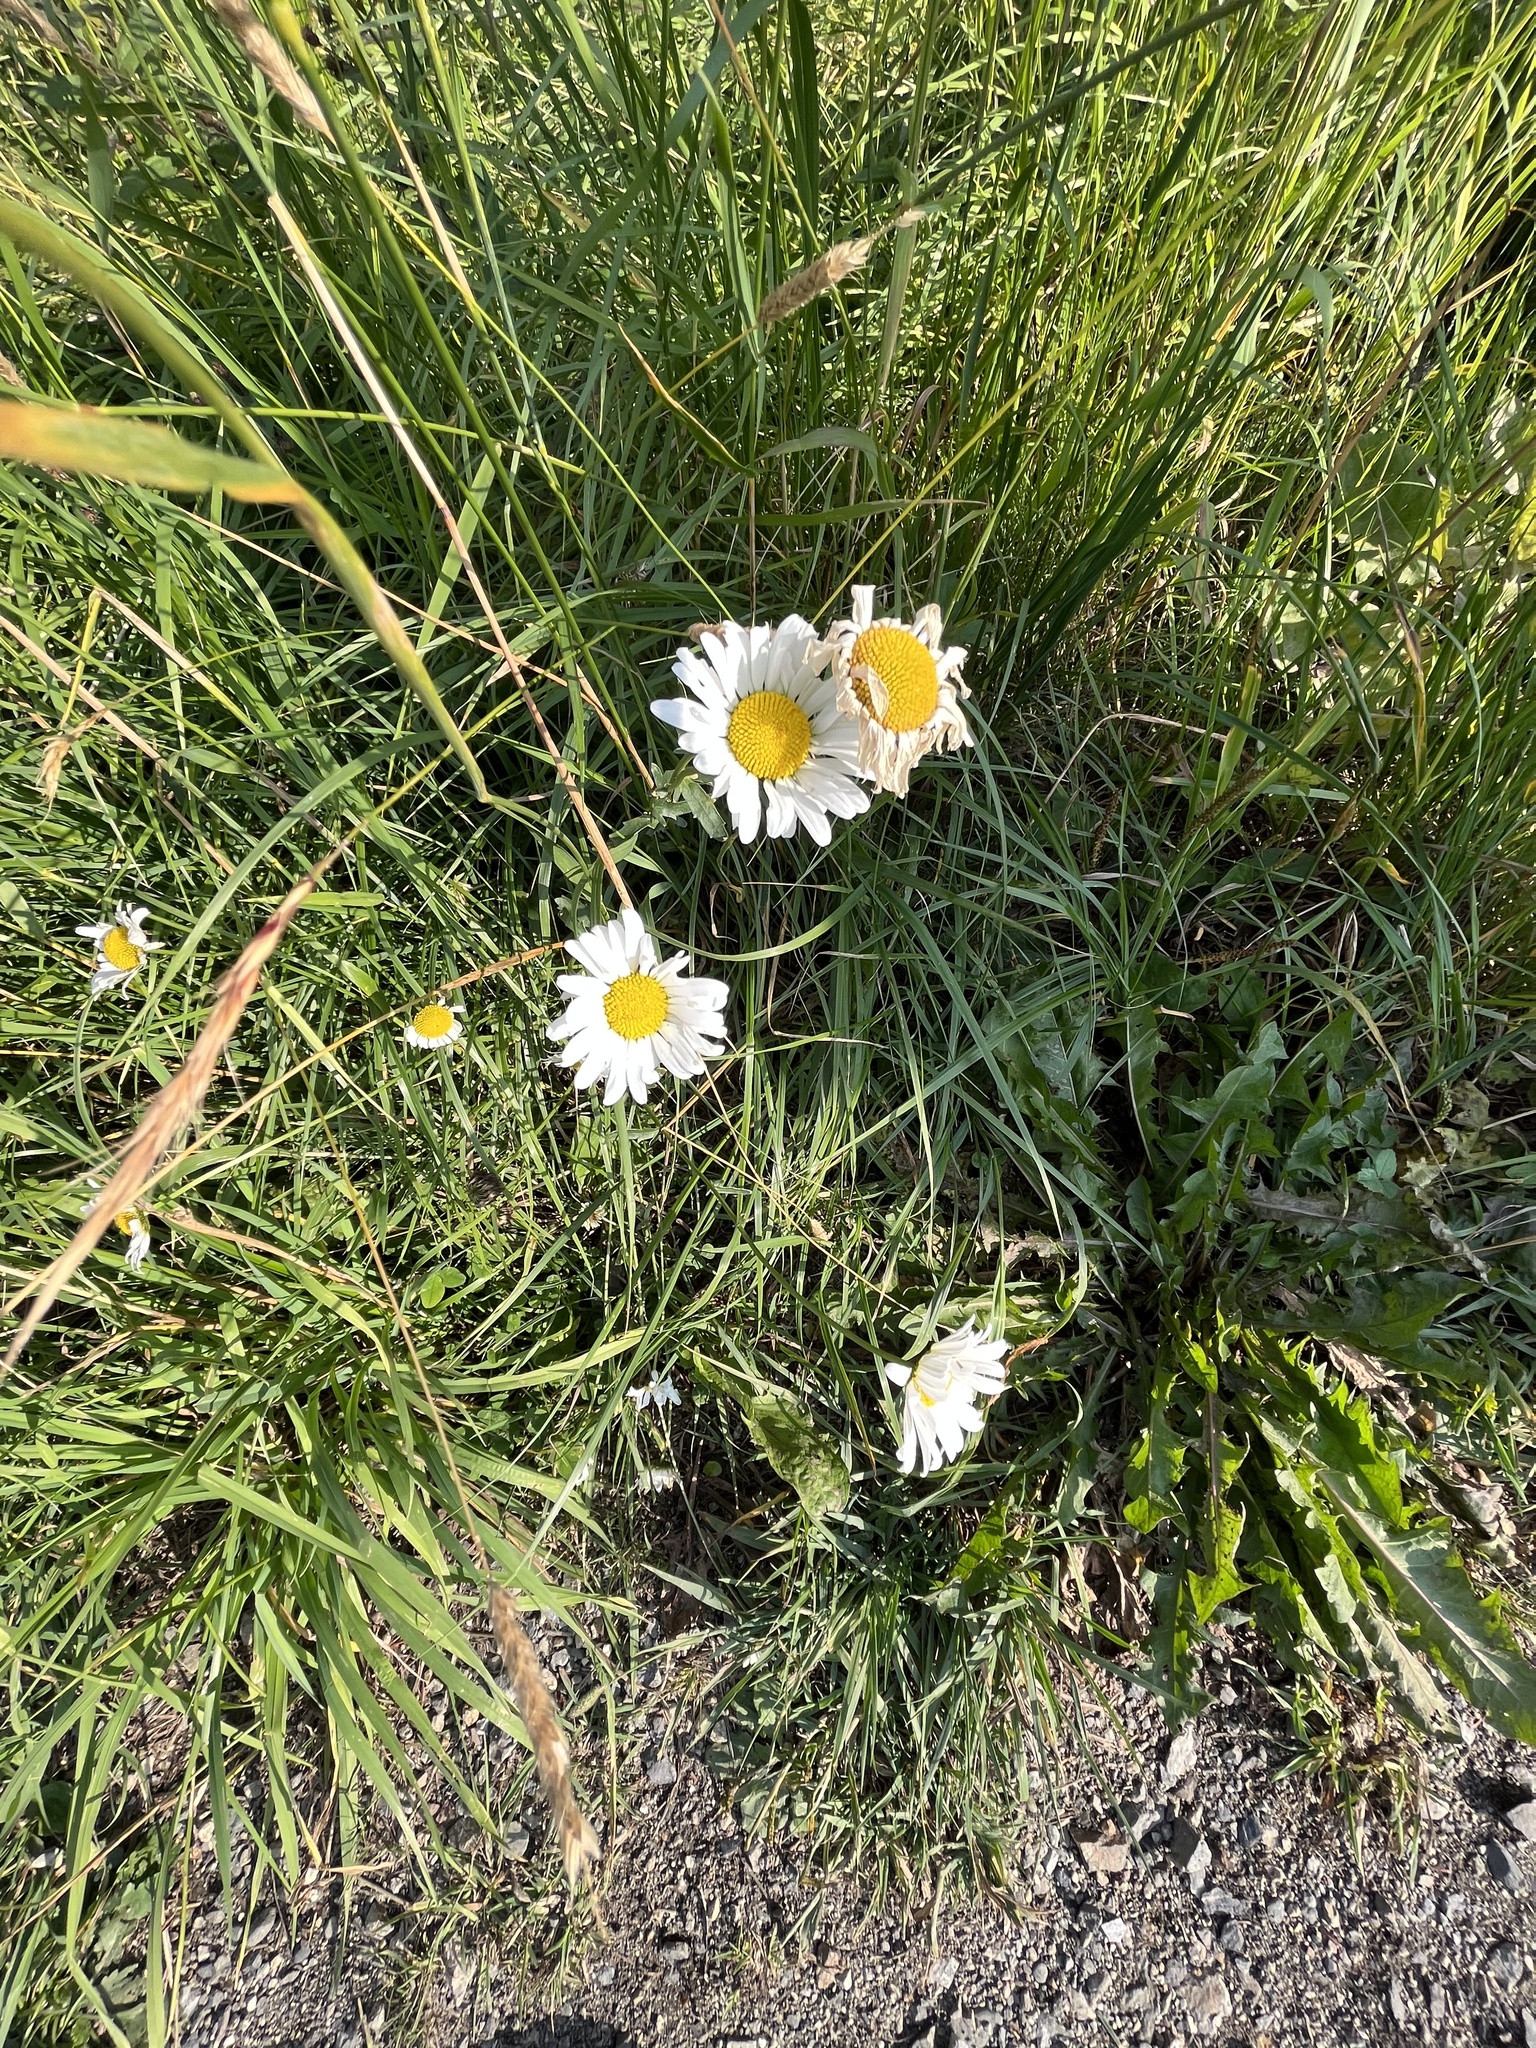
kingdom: Plantae
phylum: Tracheophyta
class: Magnoliopsida
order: Asterales
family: Asteraceae
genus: Leucanthemum
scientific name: Leucanthemum vulgare
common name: Oxeye daisy
